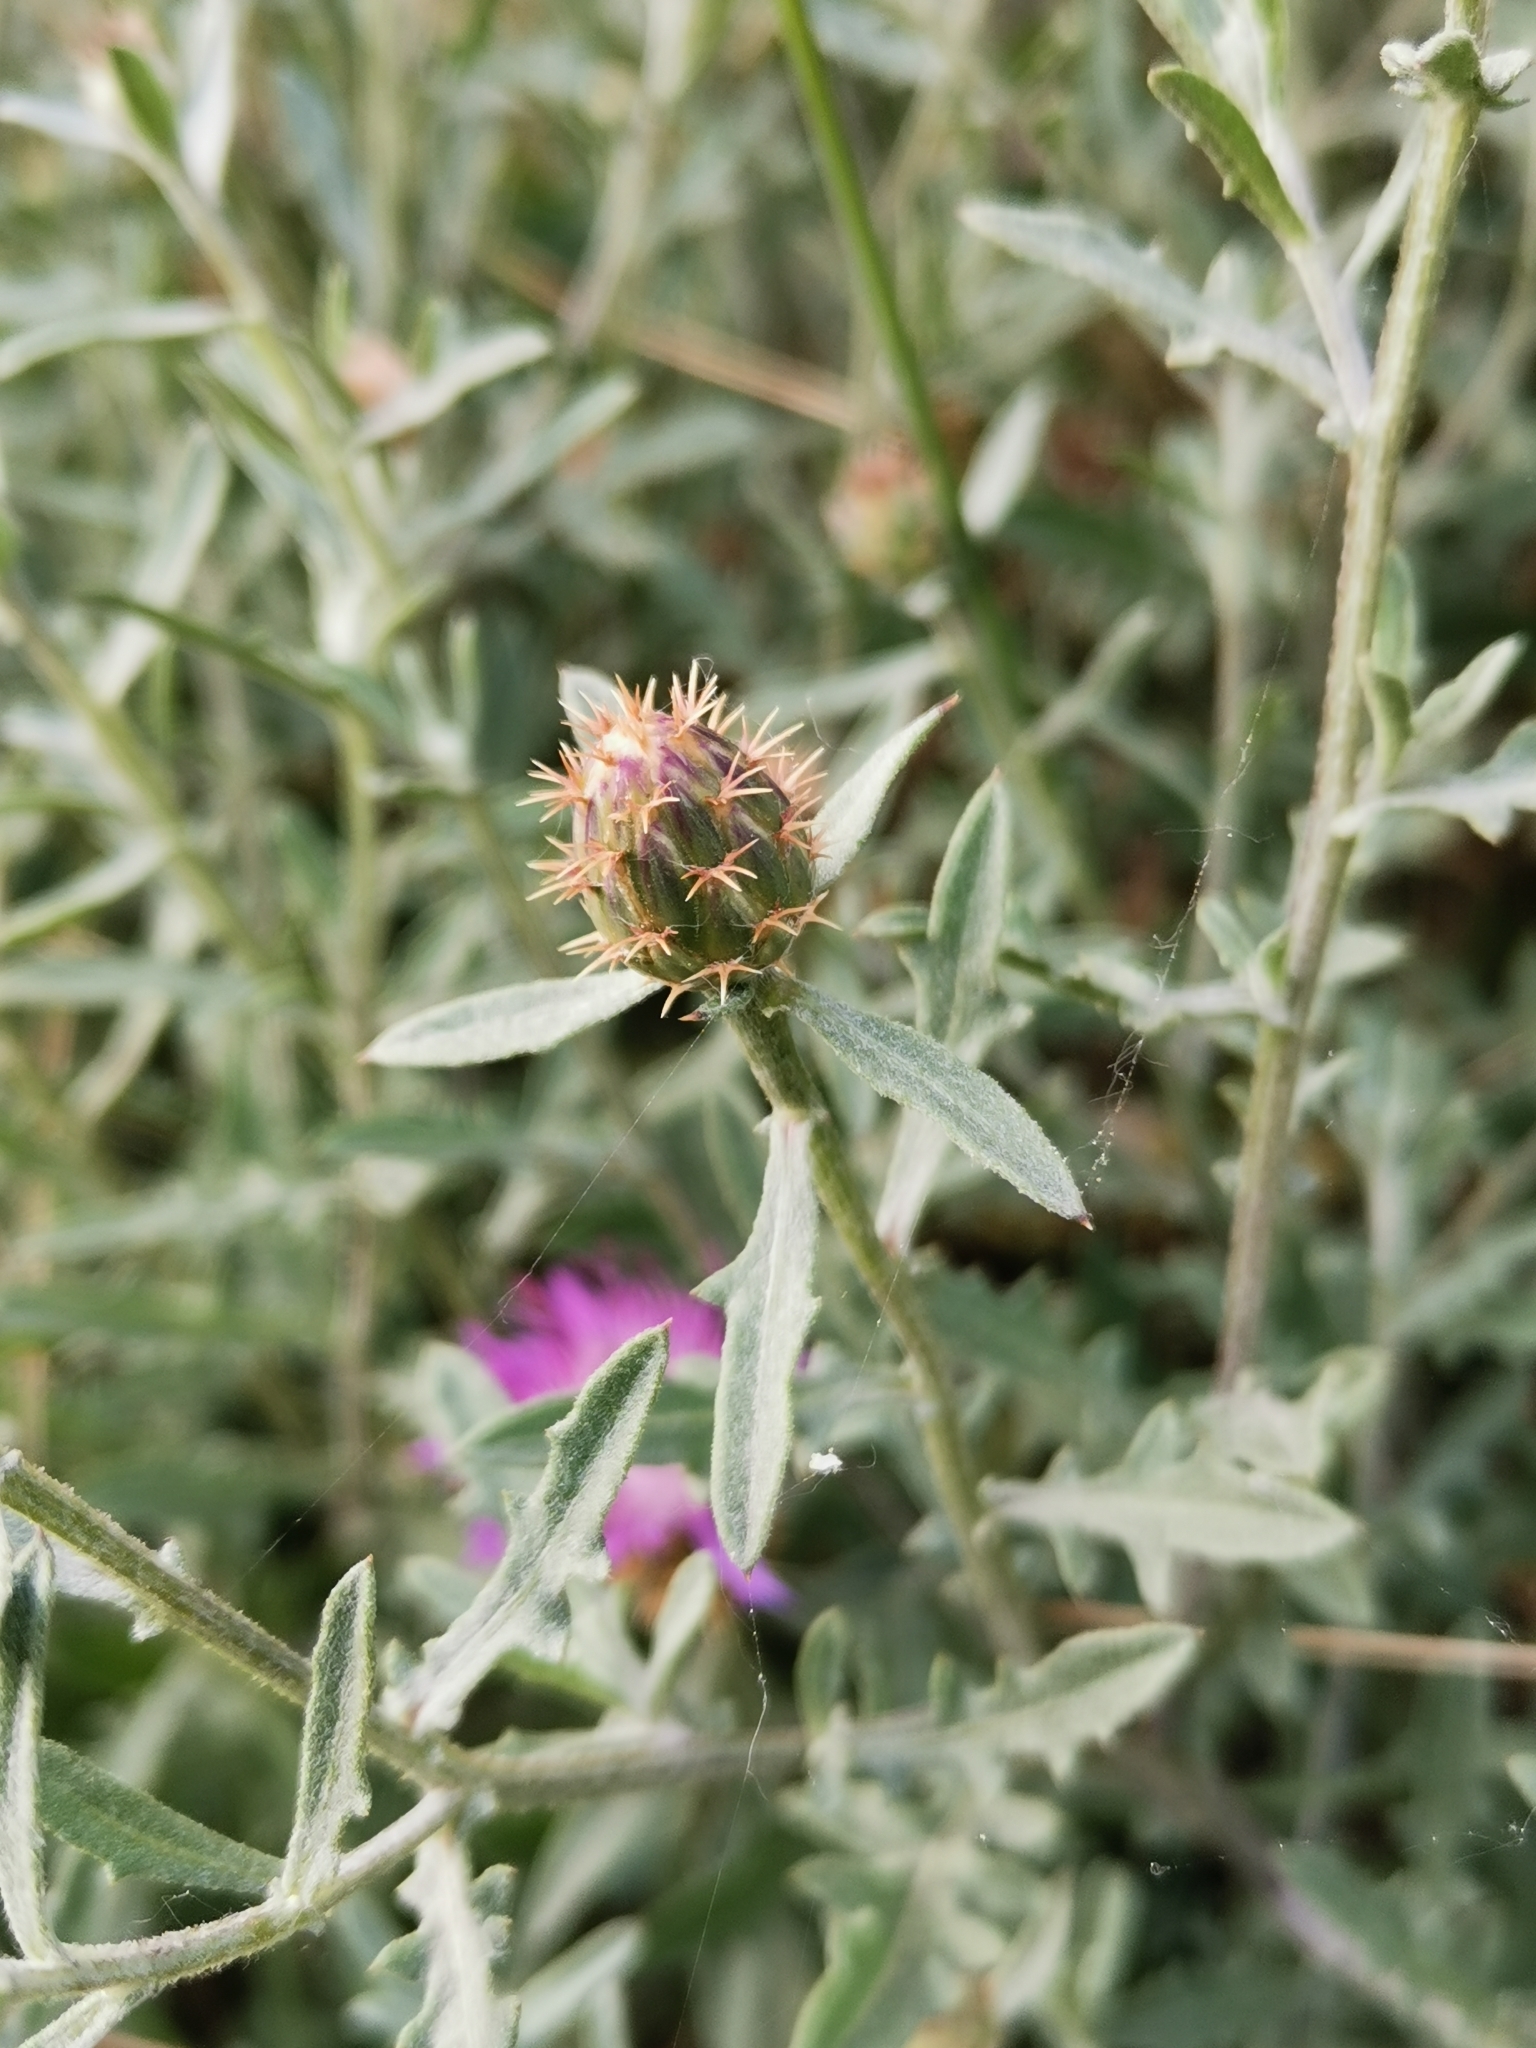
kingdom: Plantae
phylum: Tracheophyta
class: Magnoliopsida
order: Asterales
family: Asteraceae
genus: Centaurea
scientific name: Centaurea aspera
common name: Rough star-thistle
